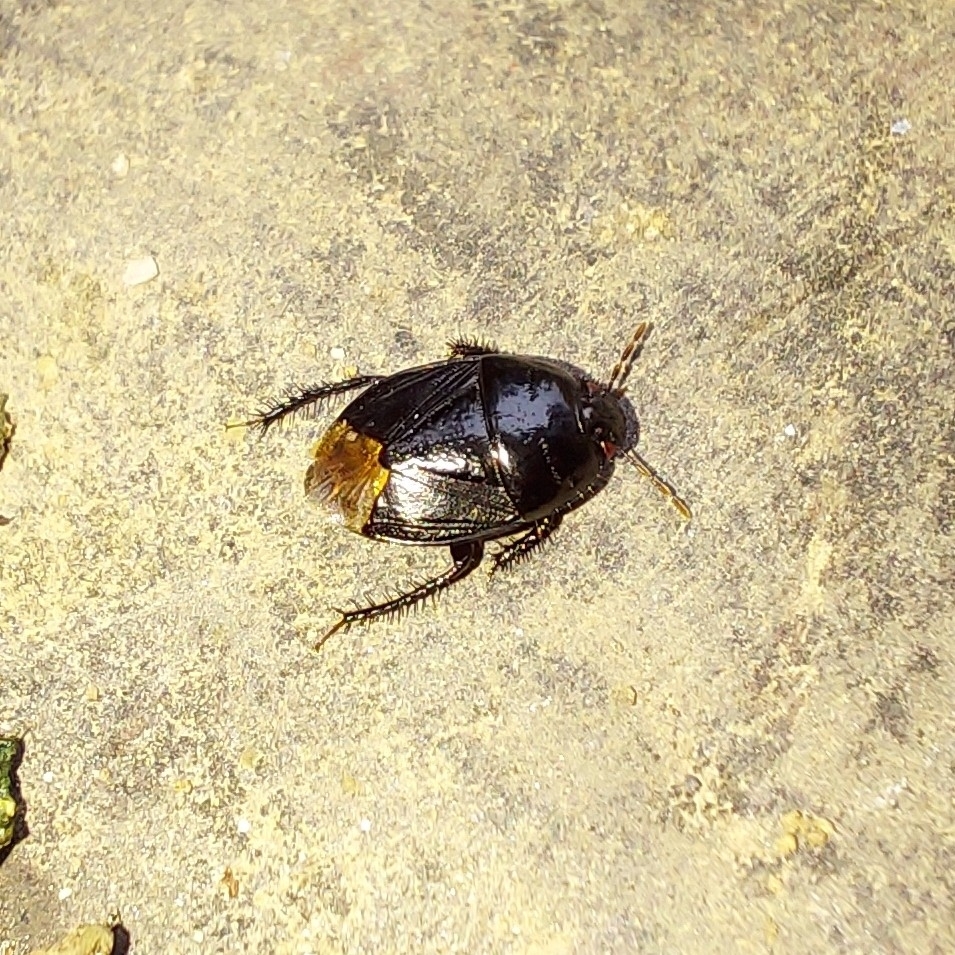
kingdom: Animalia
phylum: Arthropoda
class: Insecta
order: Hemiptera
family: Cydnidae
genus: Pangaeus
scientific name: Pangaeus bilineatus
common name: Burrower bug
